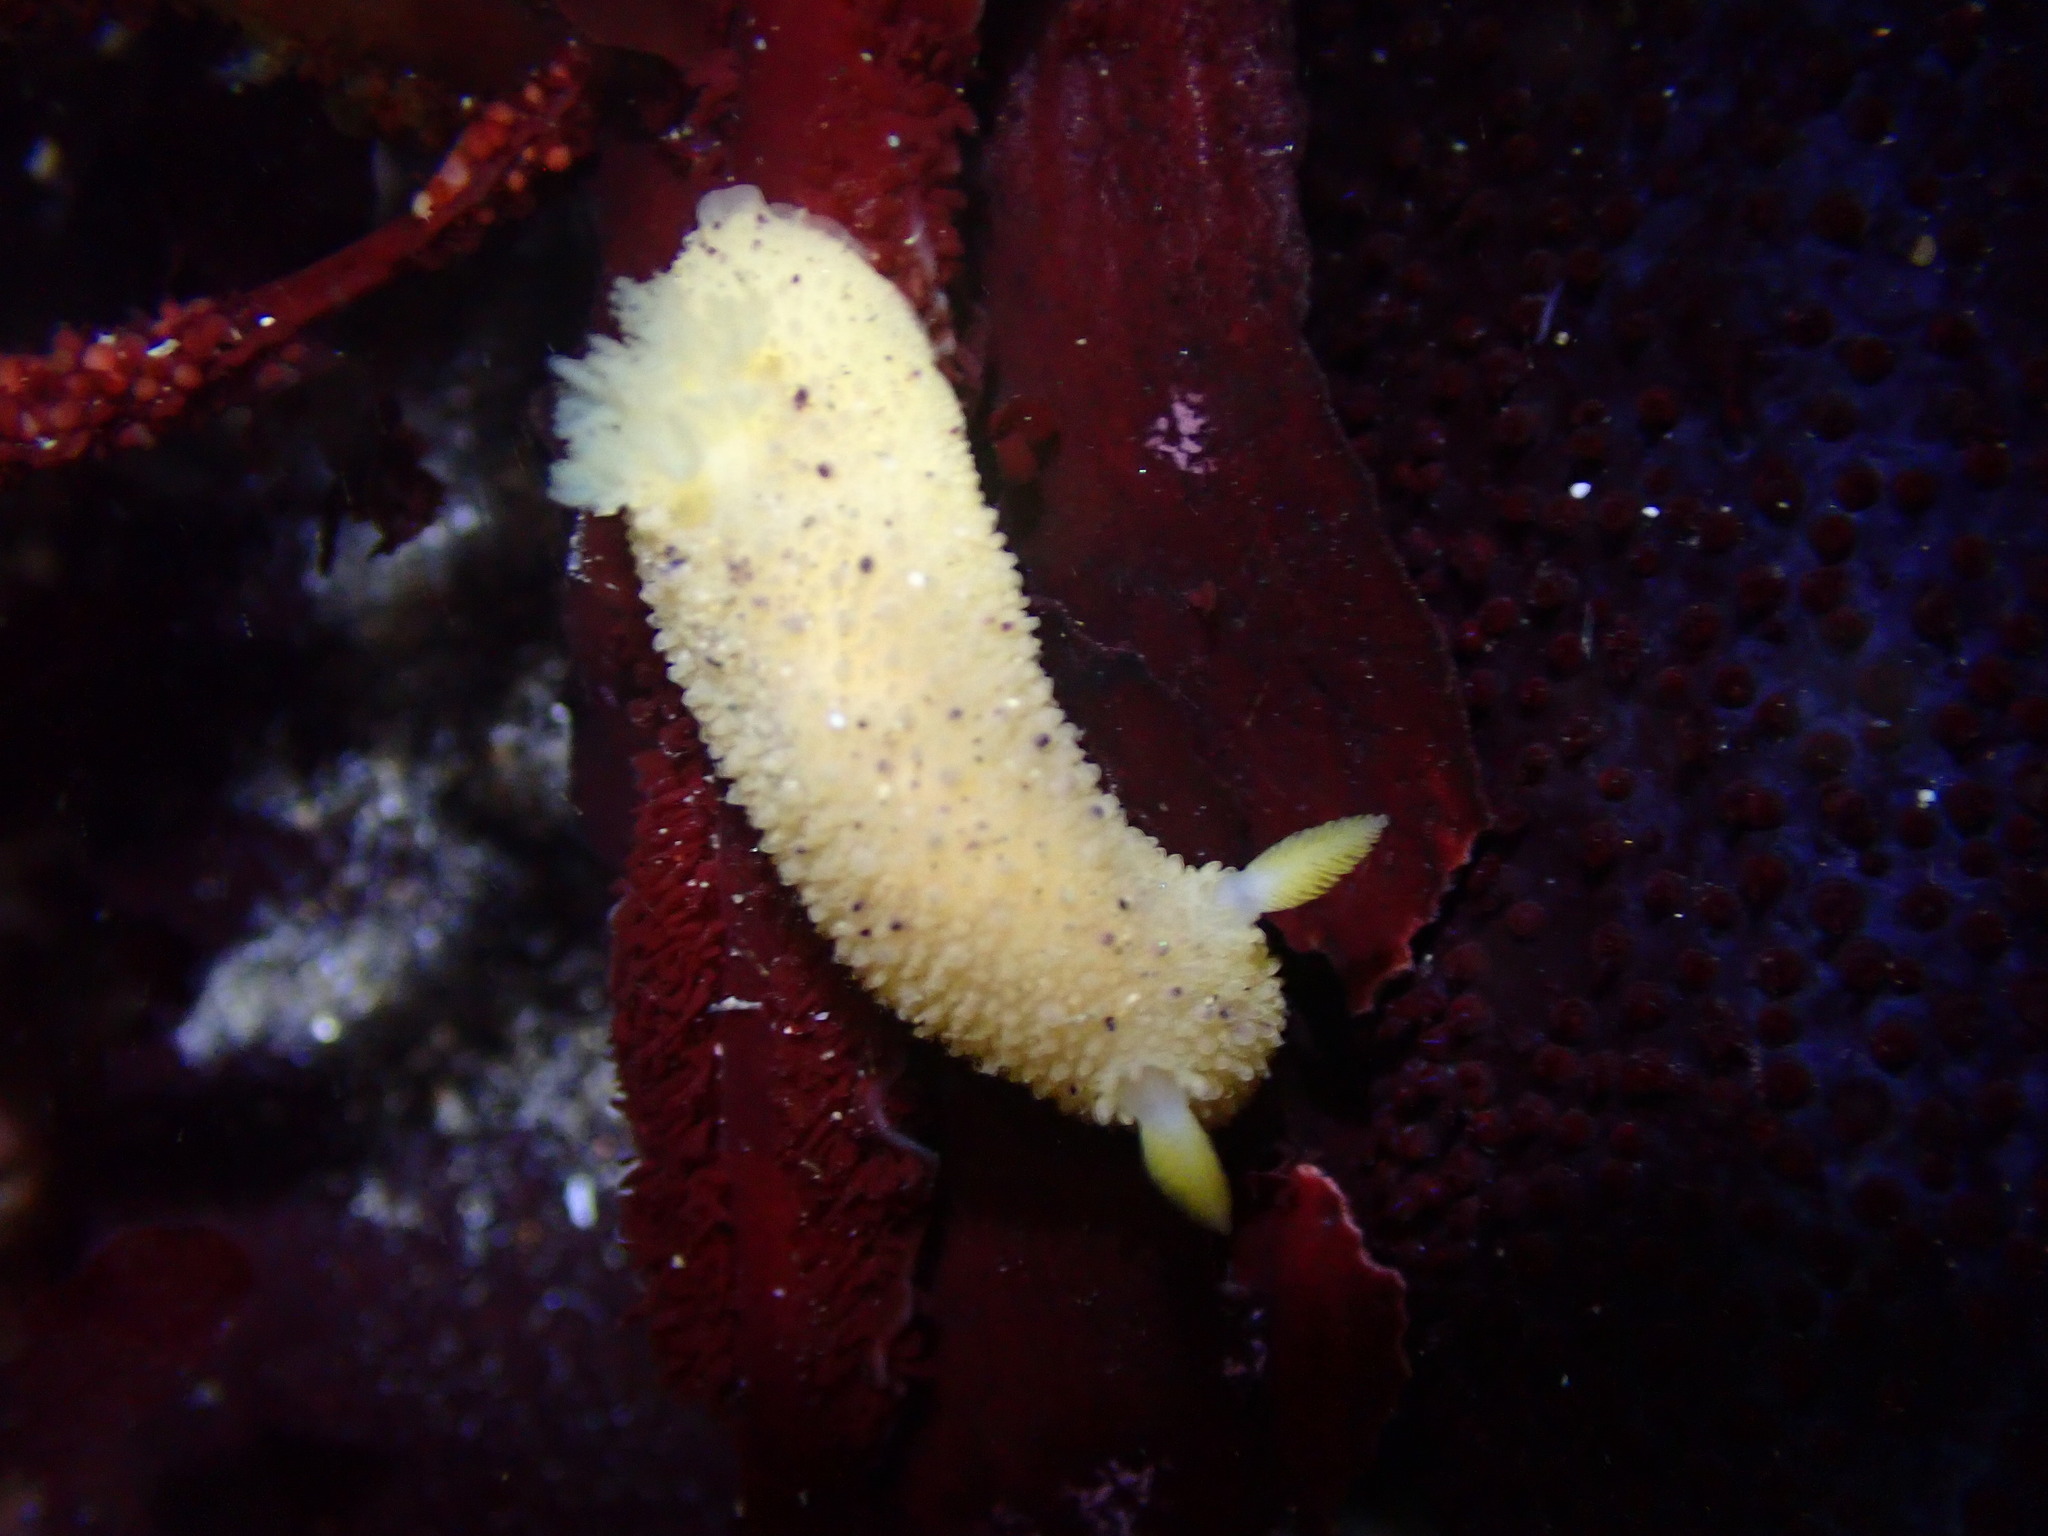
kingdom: Animalia
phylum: Mollusca
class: Gastropoda
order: Nudibranchia
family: Dorididae
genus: Doris
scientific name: Doris montereyensis
